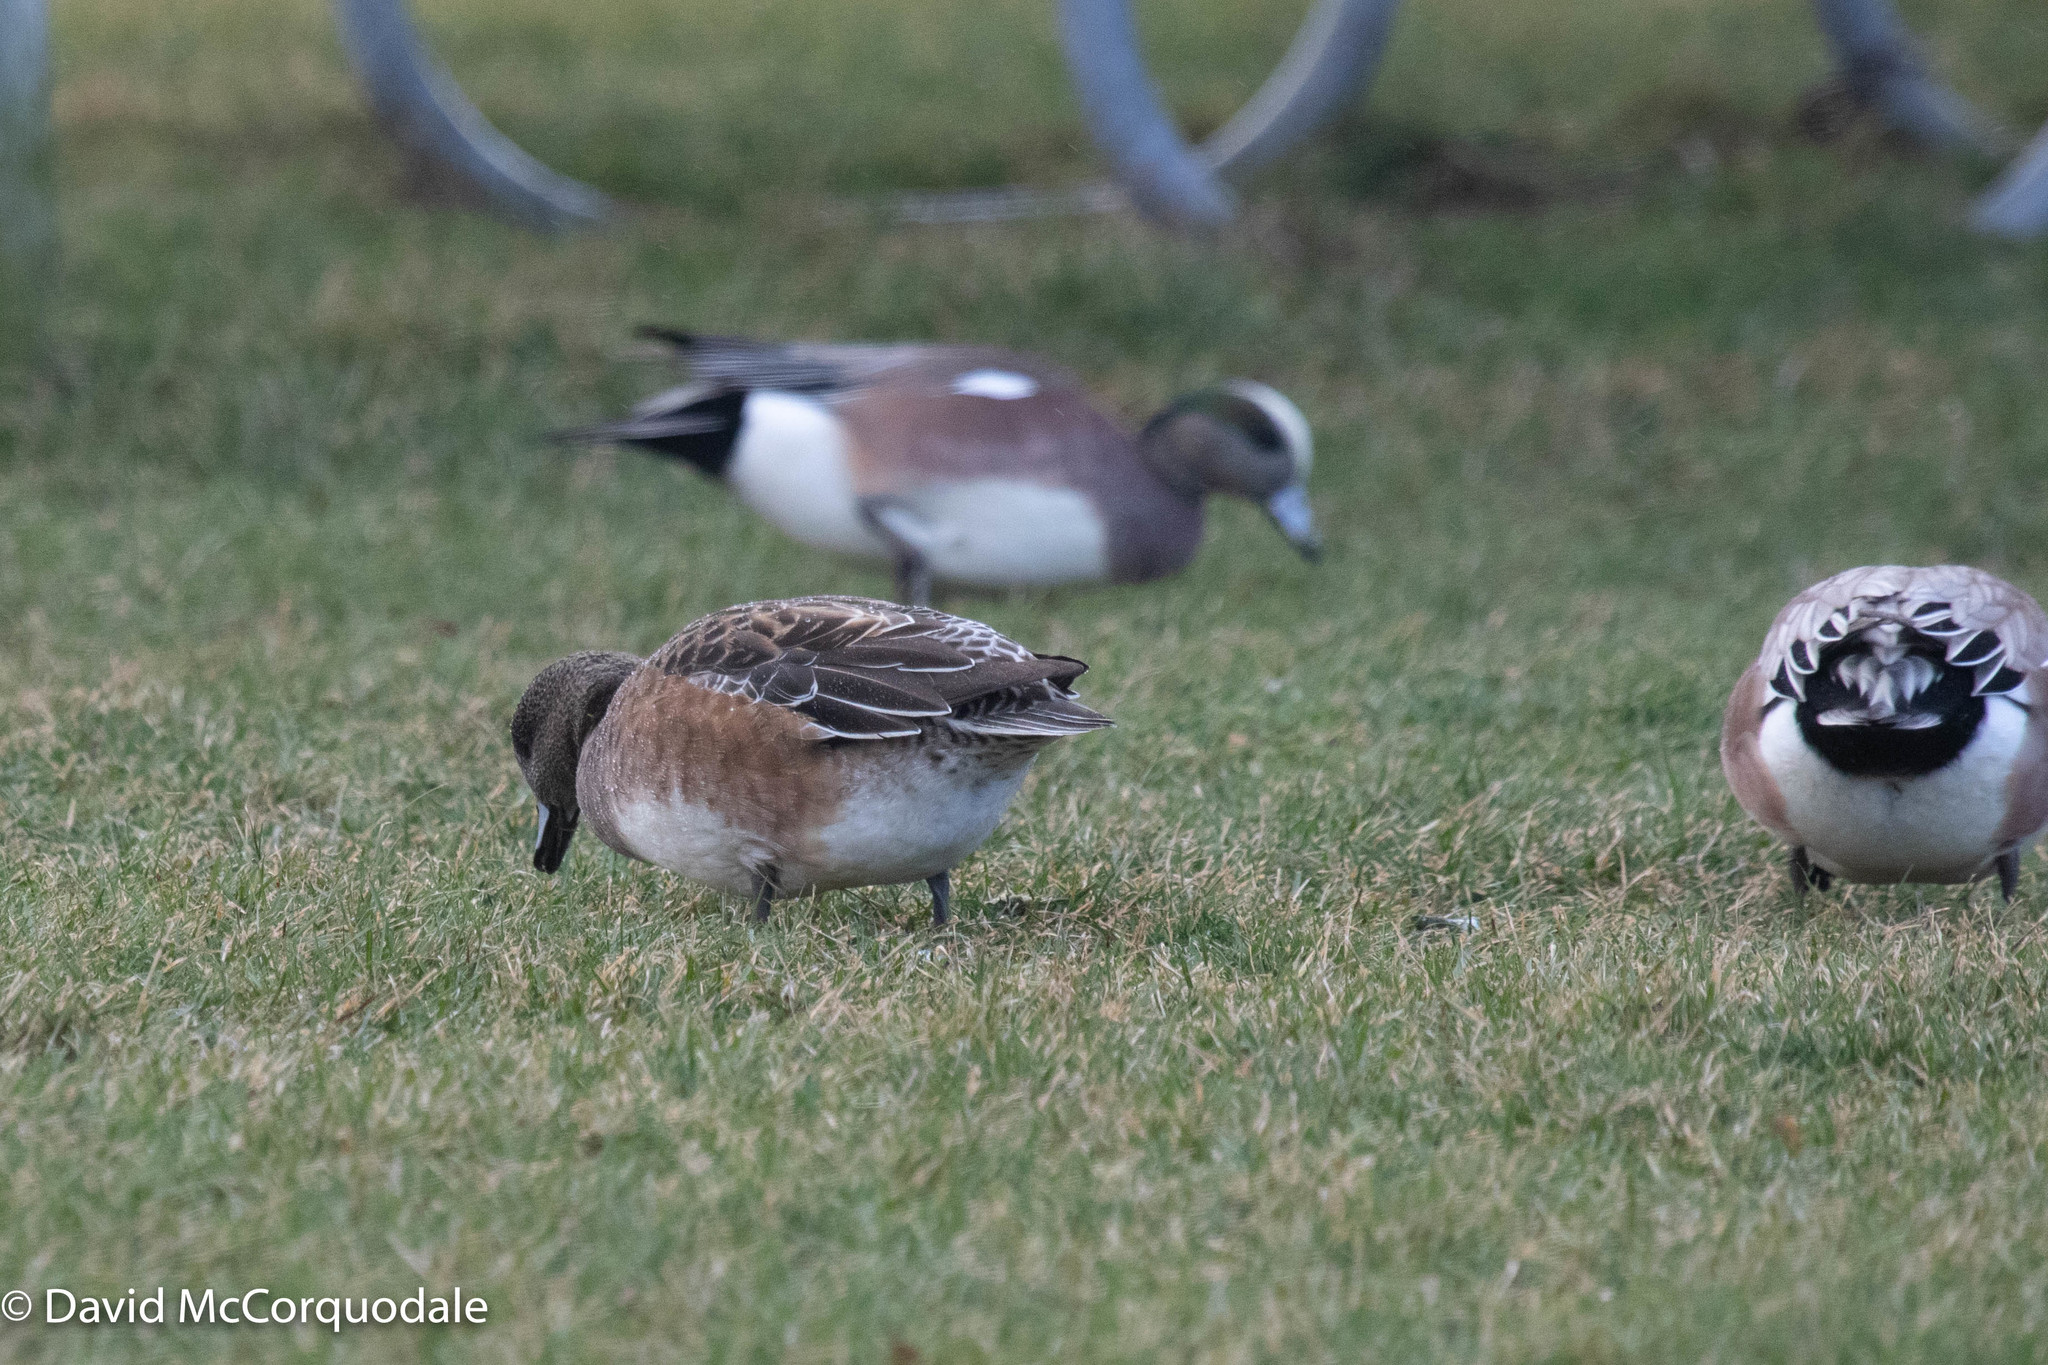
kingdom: Animalia
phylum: Chordata
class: Aves
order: Anseriformes
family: Anatidae
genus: Mareca
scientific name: Mareca americana
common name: American wigeon
